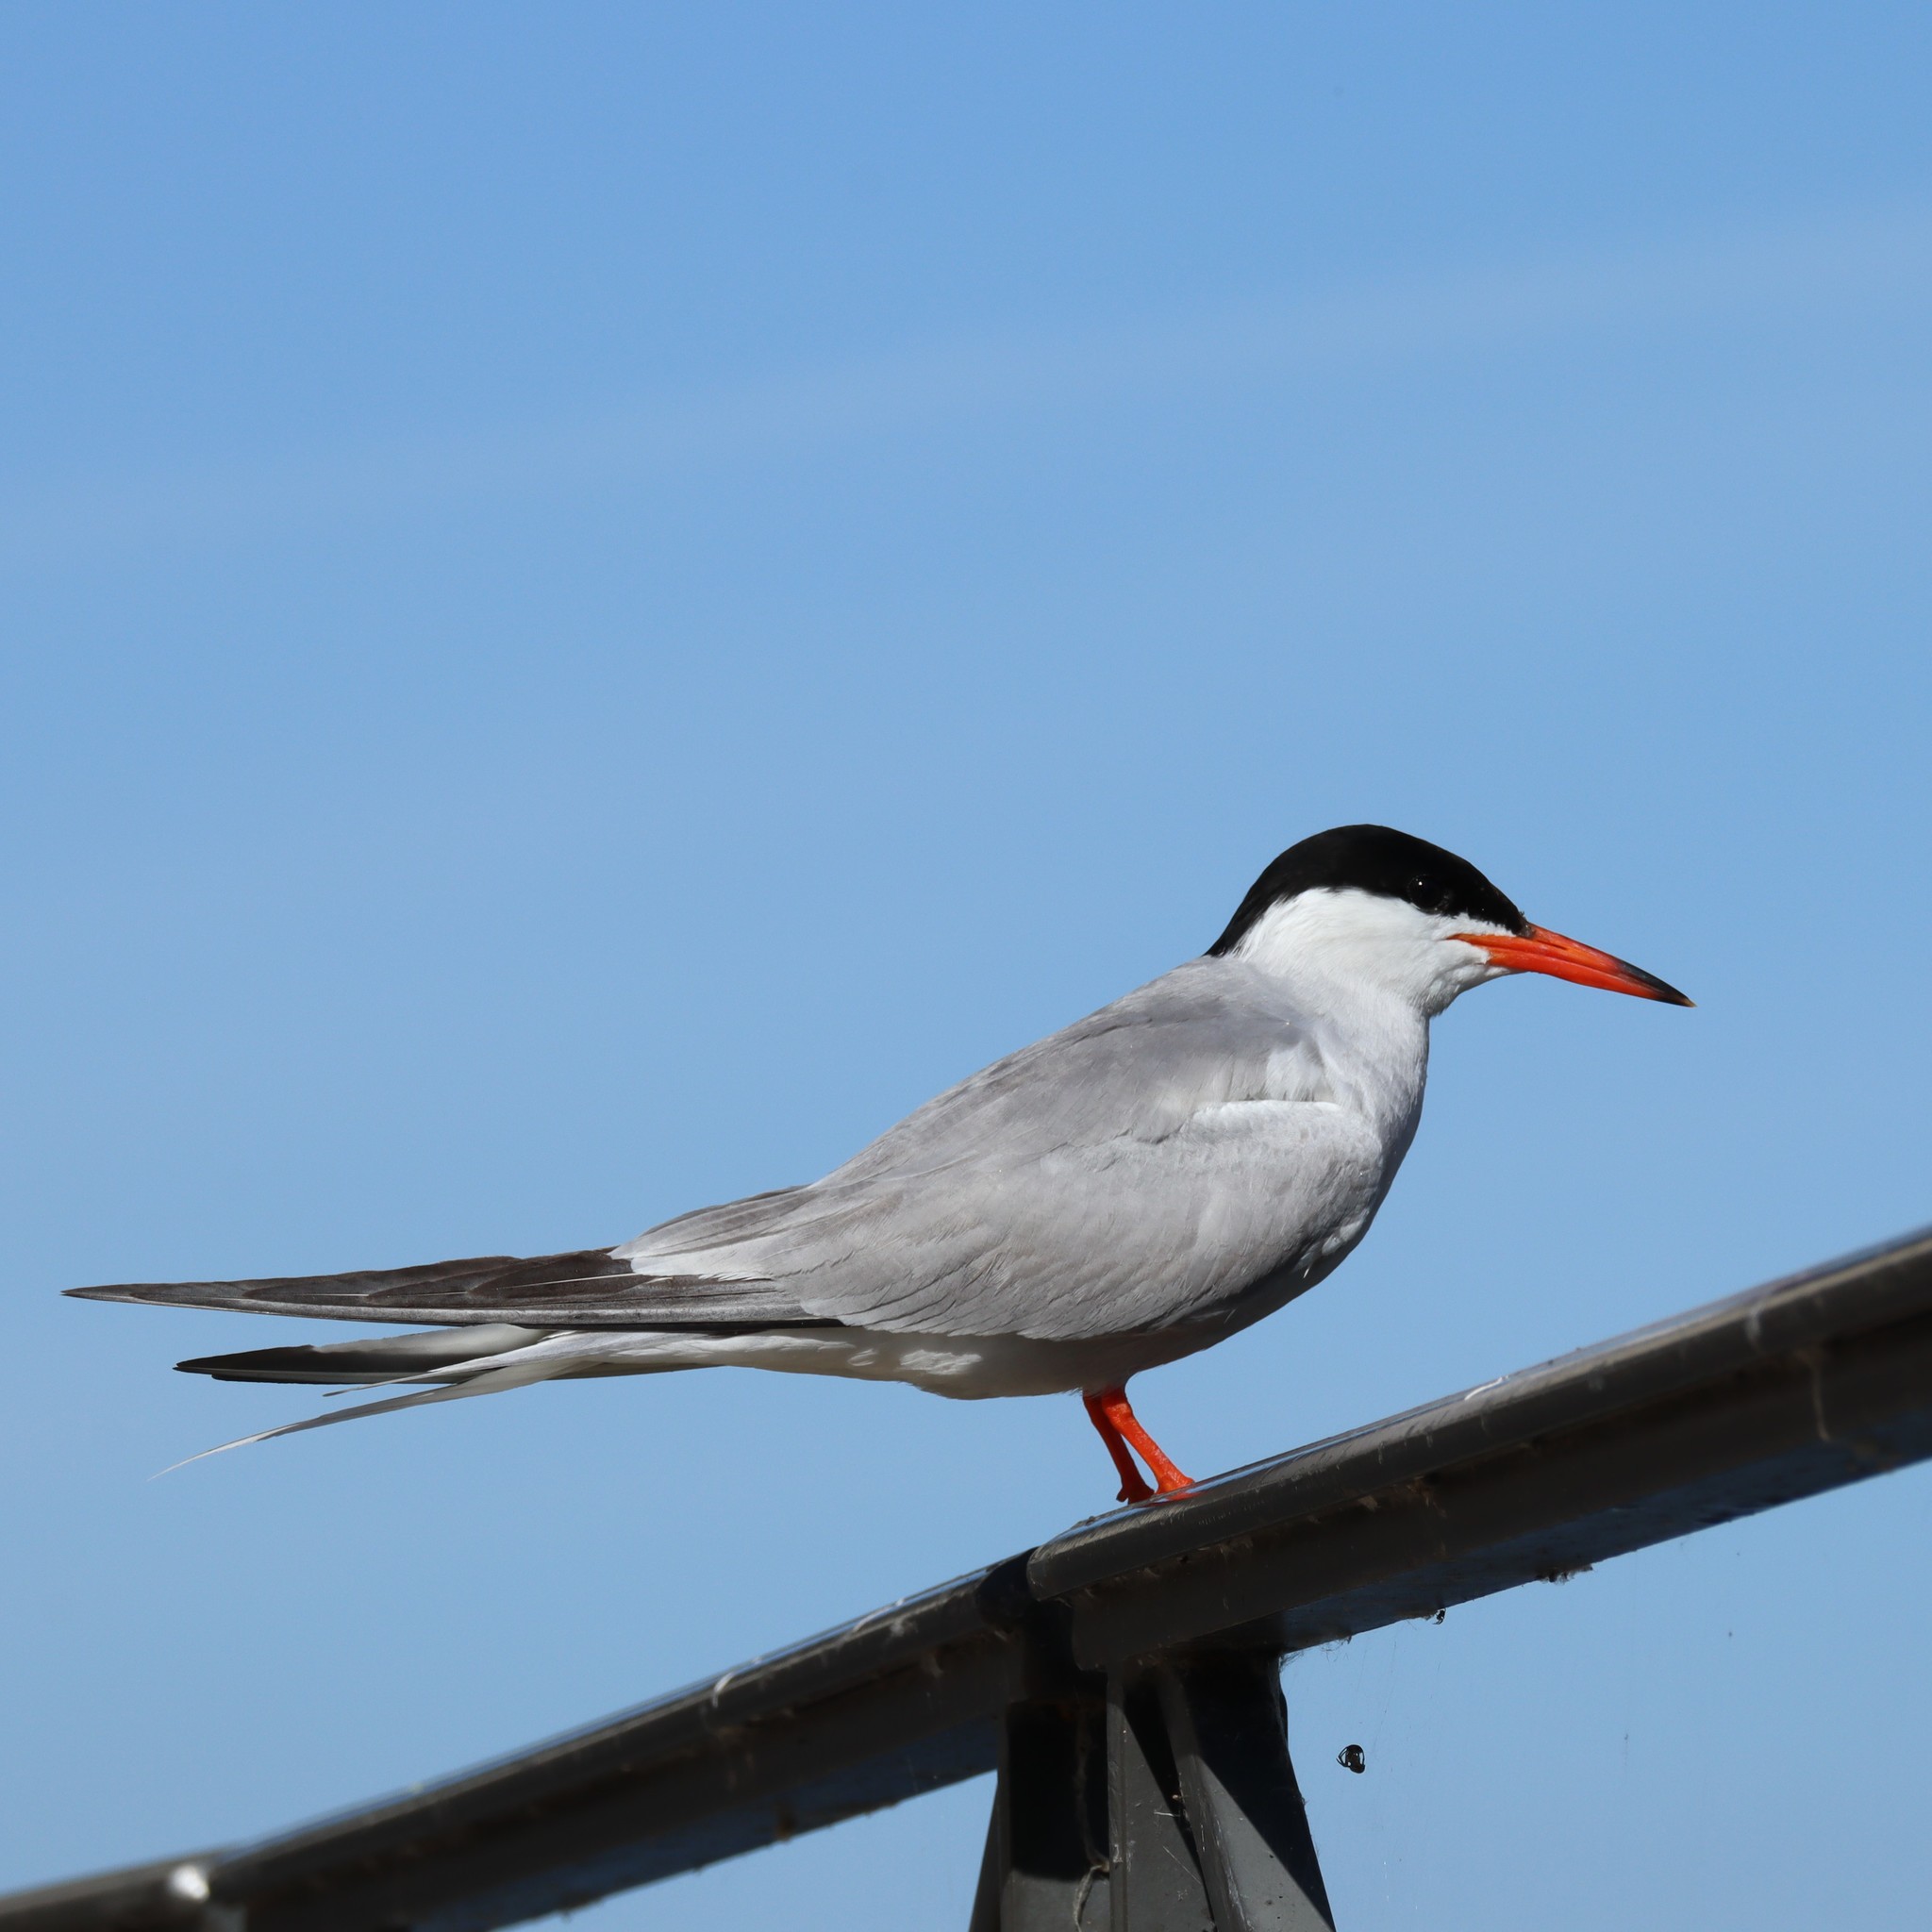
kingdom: Animalia
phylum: Chordata
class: Aves
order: Charadriiformes
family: Laridae
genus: Sterna
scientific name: Sterna hirundo
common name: Common tern
